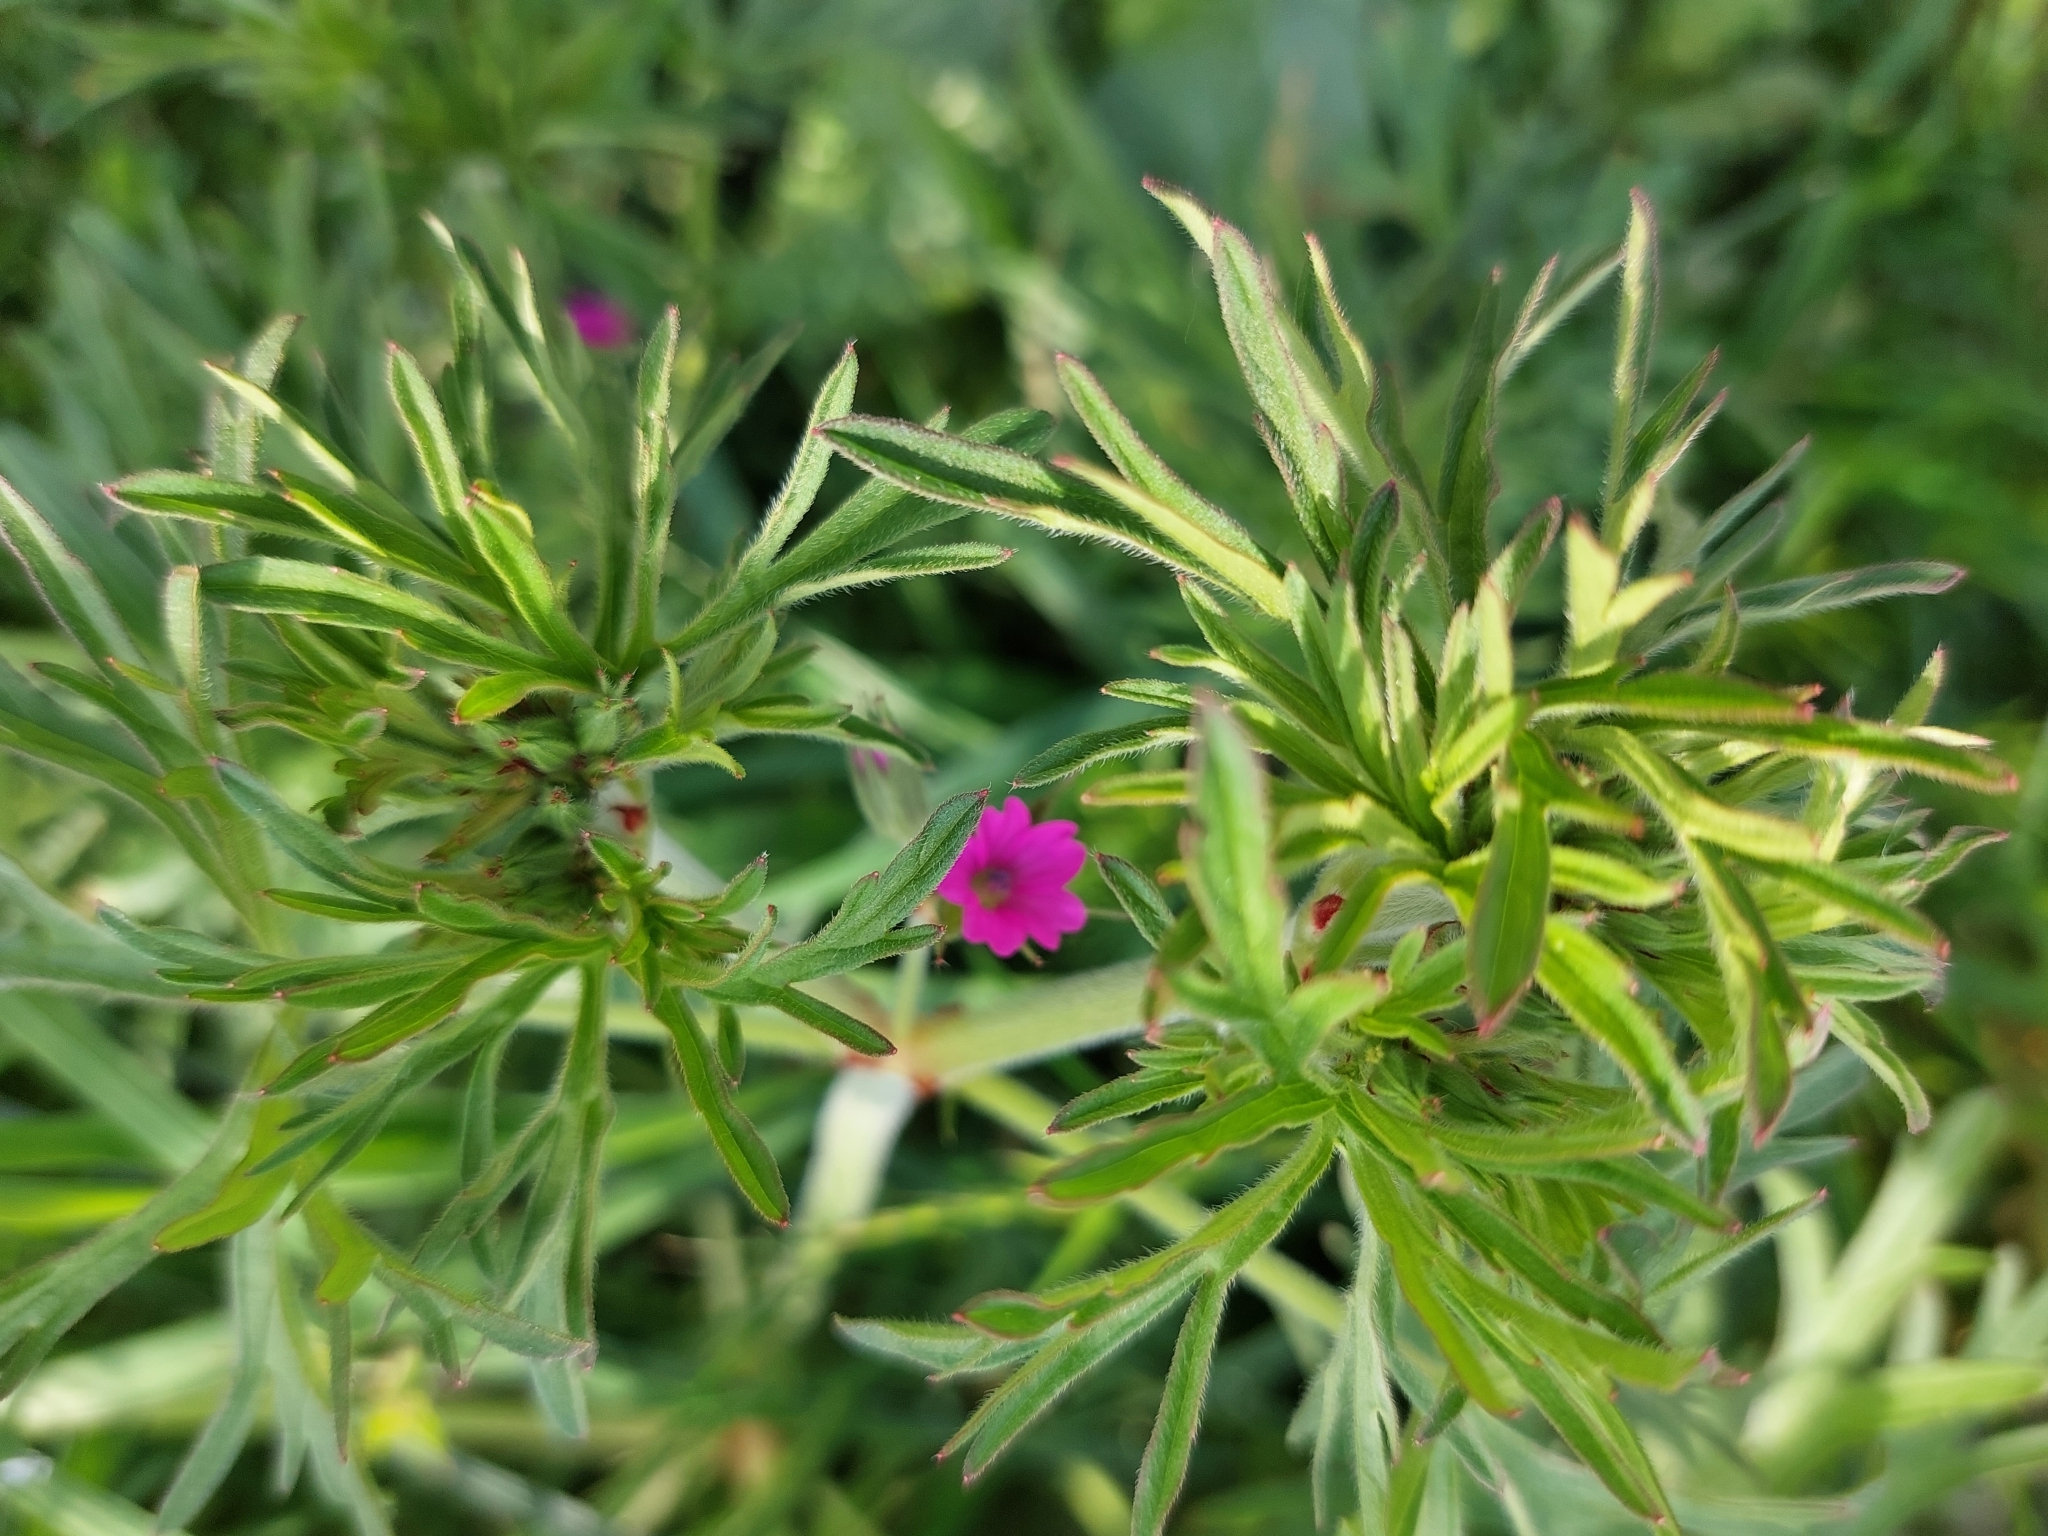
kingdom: Plantae
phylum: Tracheophyta
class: Magnoliopsida
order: Geraniales
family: Geraniaceae
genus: Geranium
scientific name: Geranium dissectum
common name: Cut-leaved crane's-bill
